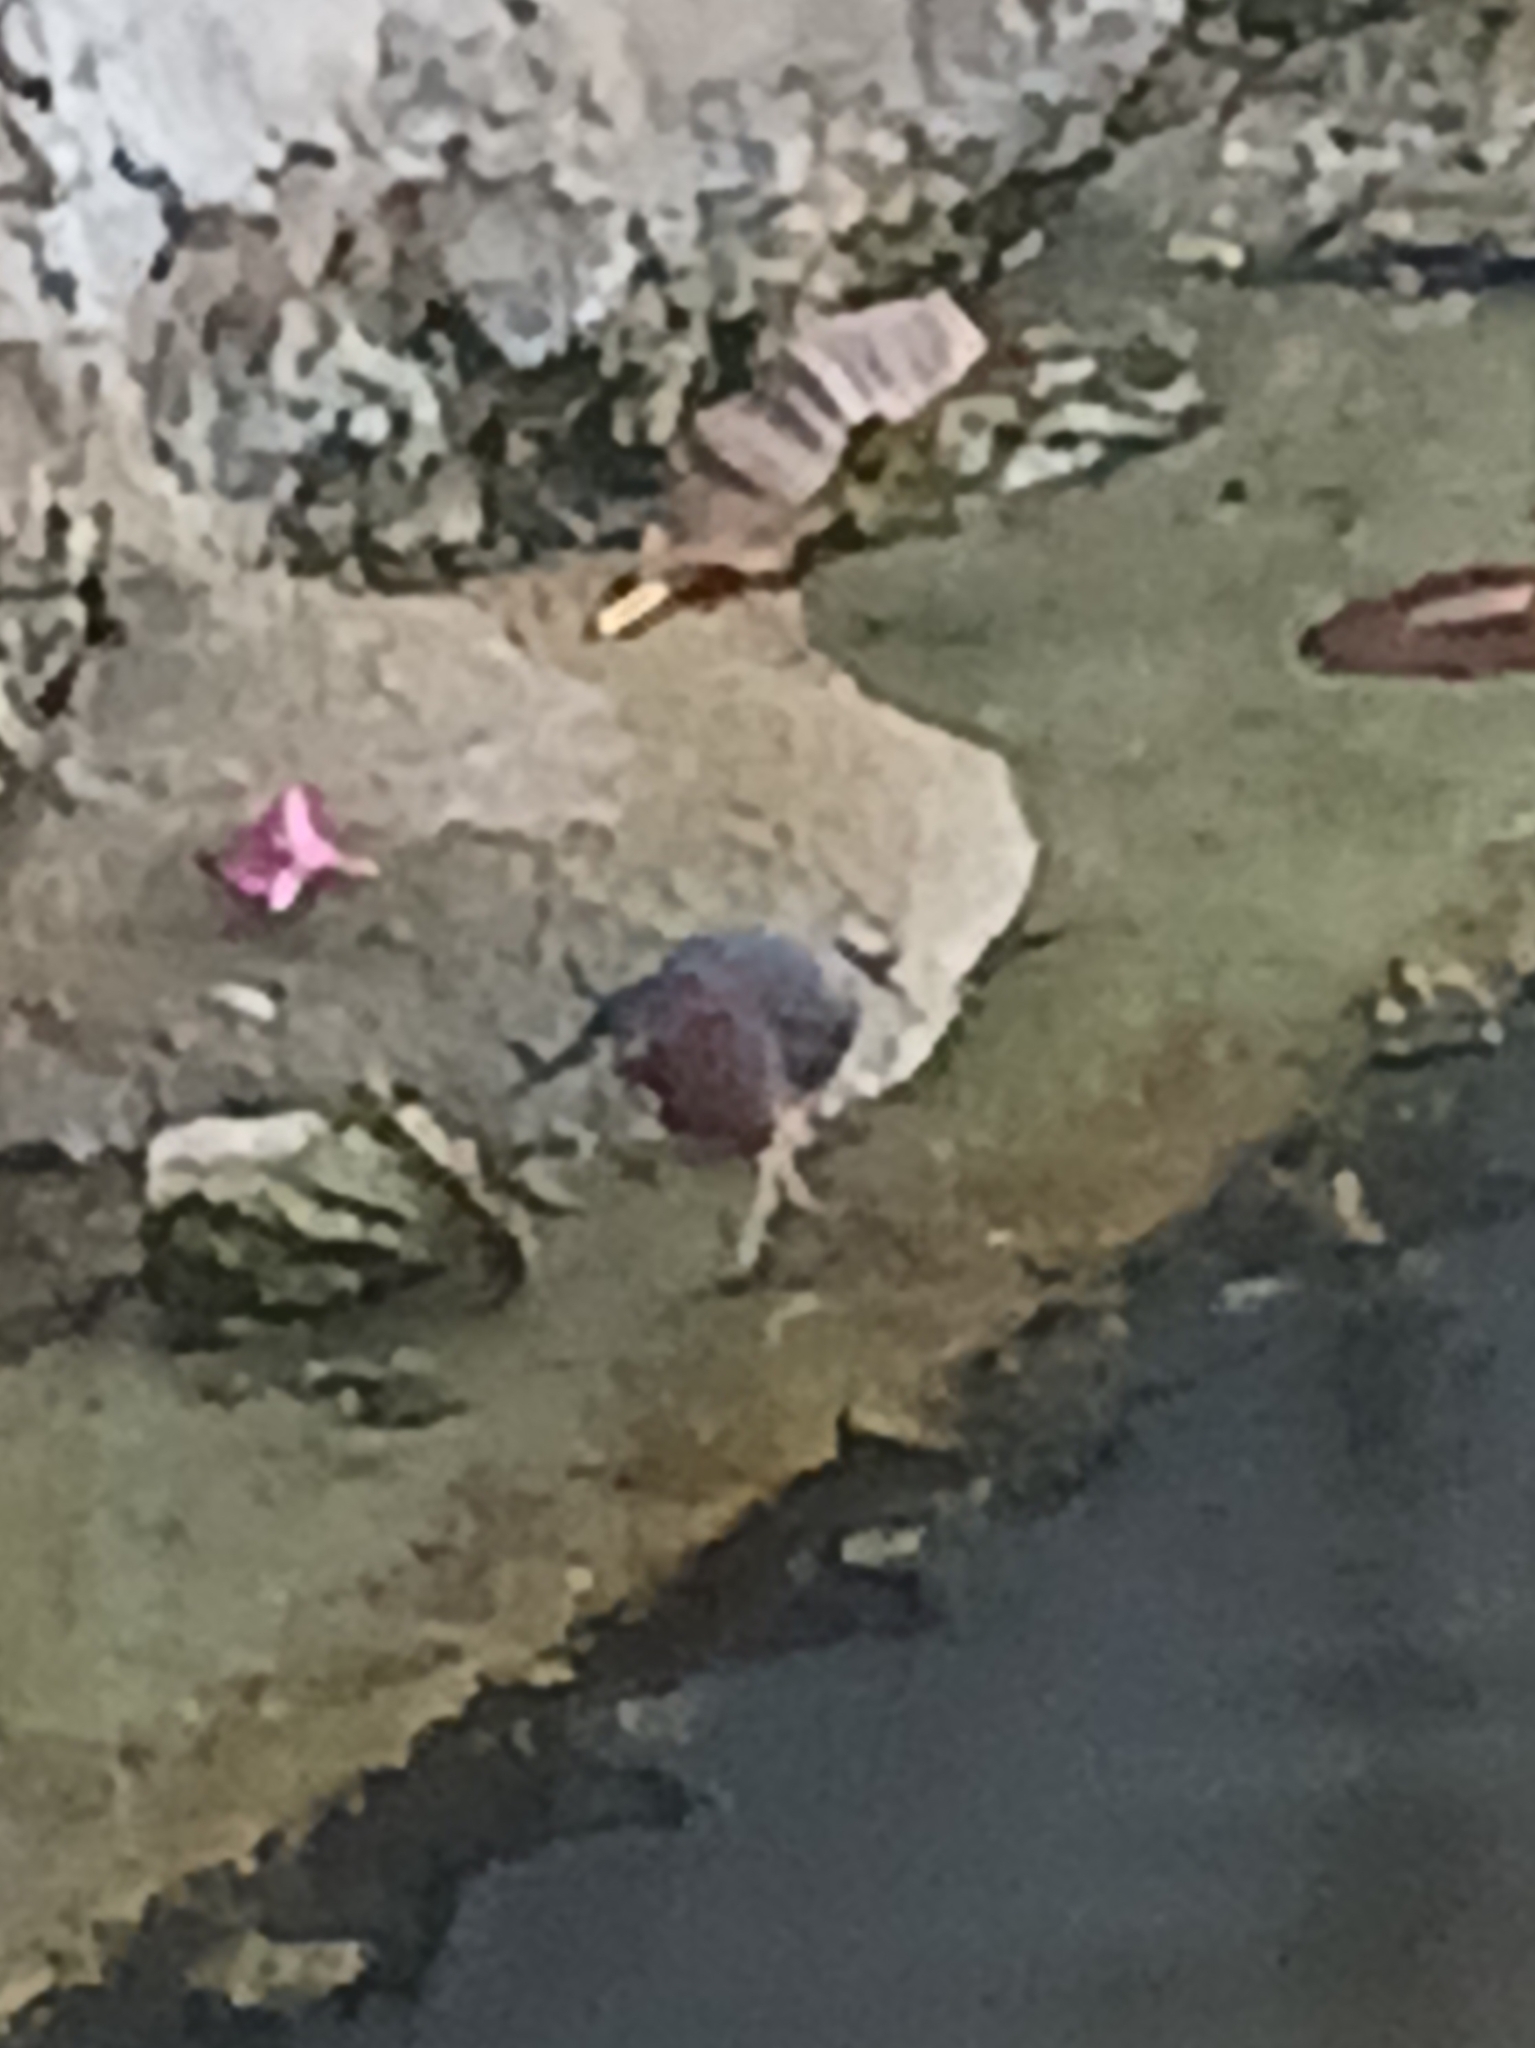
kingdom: Animalia
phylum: Chordata
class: Aves
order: Pelecaniformes
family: Ardeidae
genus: Butorides
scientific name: Butorides virescens
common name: Green heron
